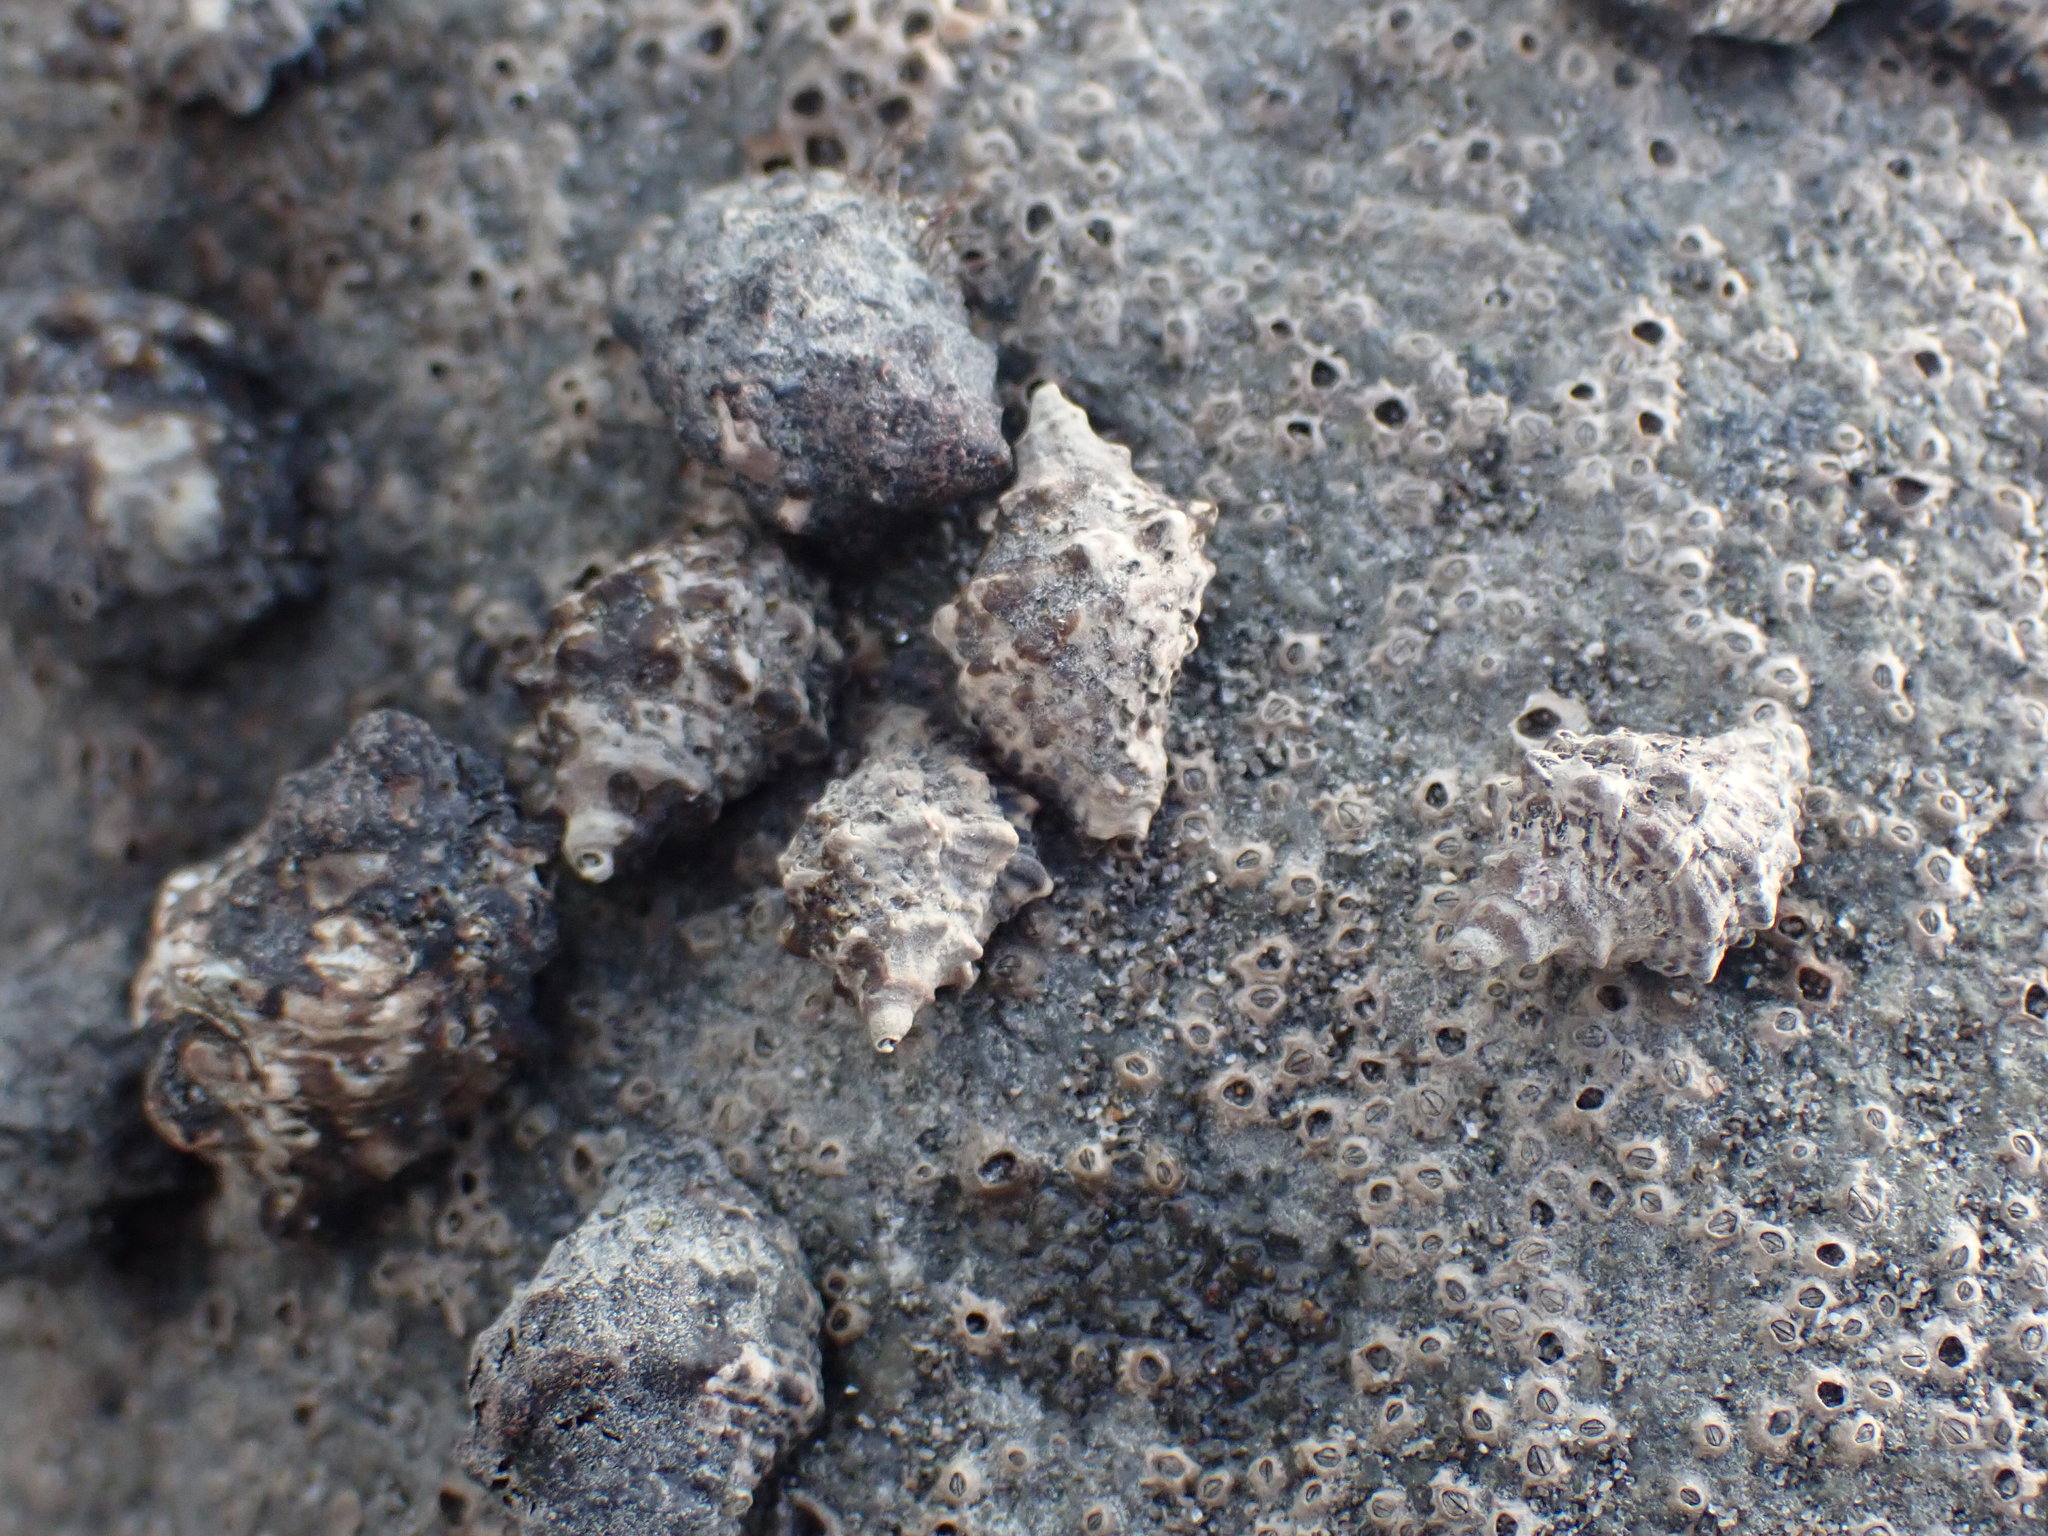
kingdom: Animalia
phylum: Mollusca
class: Gastropoda
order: Neogastropoda
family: Muricidae
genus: Haustrum
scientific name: Haustrum scobina
